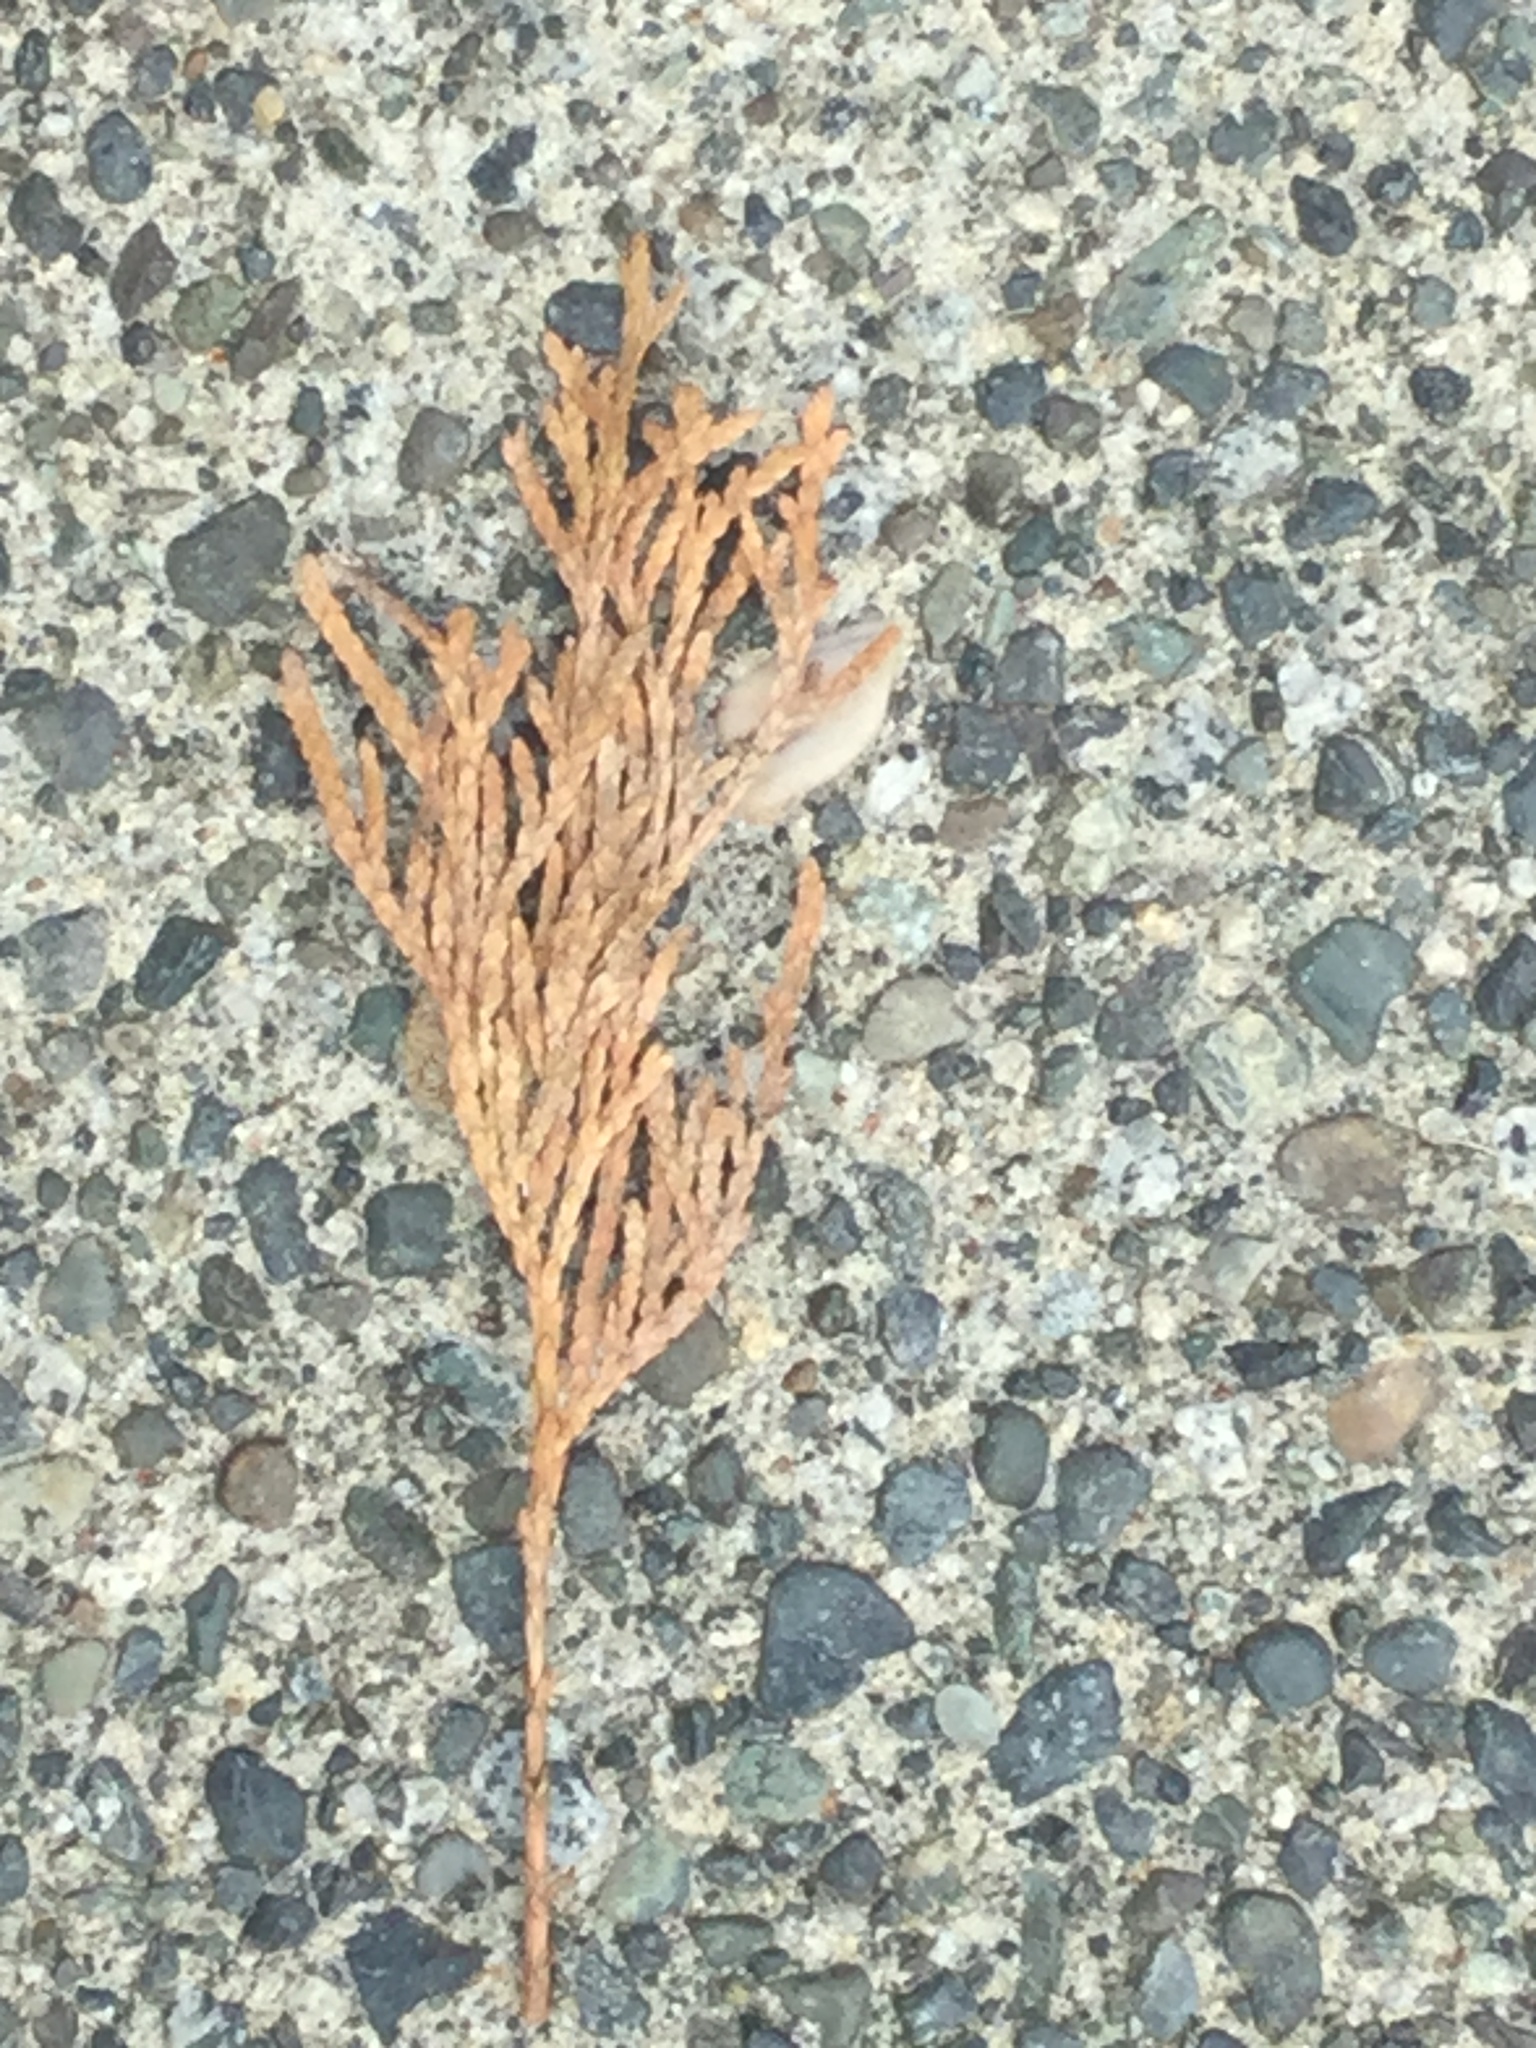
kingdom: Plantae
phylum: Tracheophyta
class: Pinopsida
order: Pinales
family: Cupressaceae
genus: Thuja
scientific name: Thuja plicata
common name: Western red-cedar
